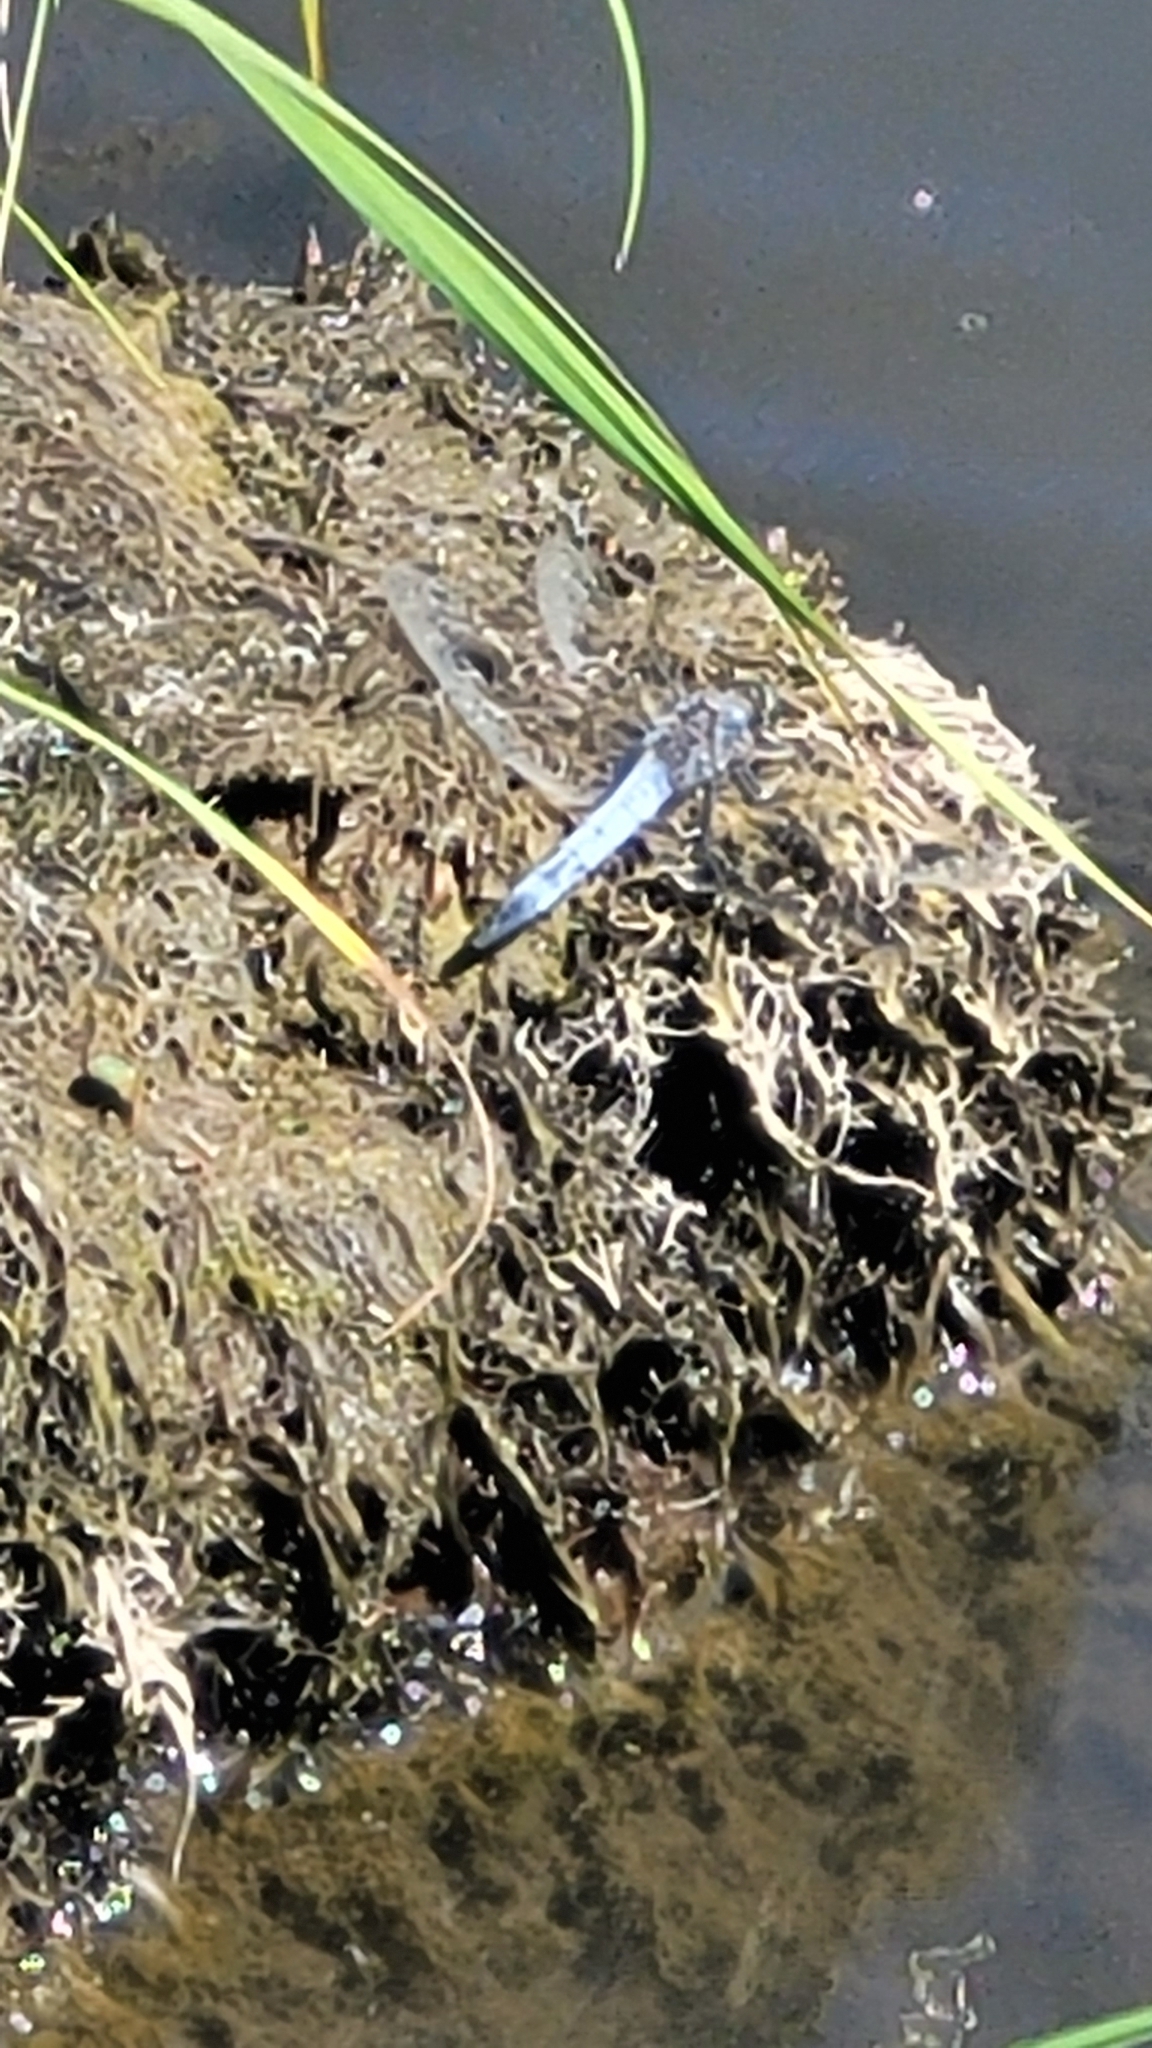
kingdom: Animalia
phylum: Arthropoda
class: Insecta
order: Odonata
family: Libellulidae
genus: Orthetrum
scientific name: Orthetrum cancellatum
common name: Black-tailed skimmer
